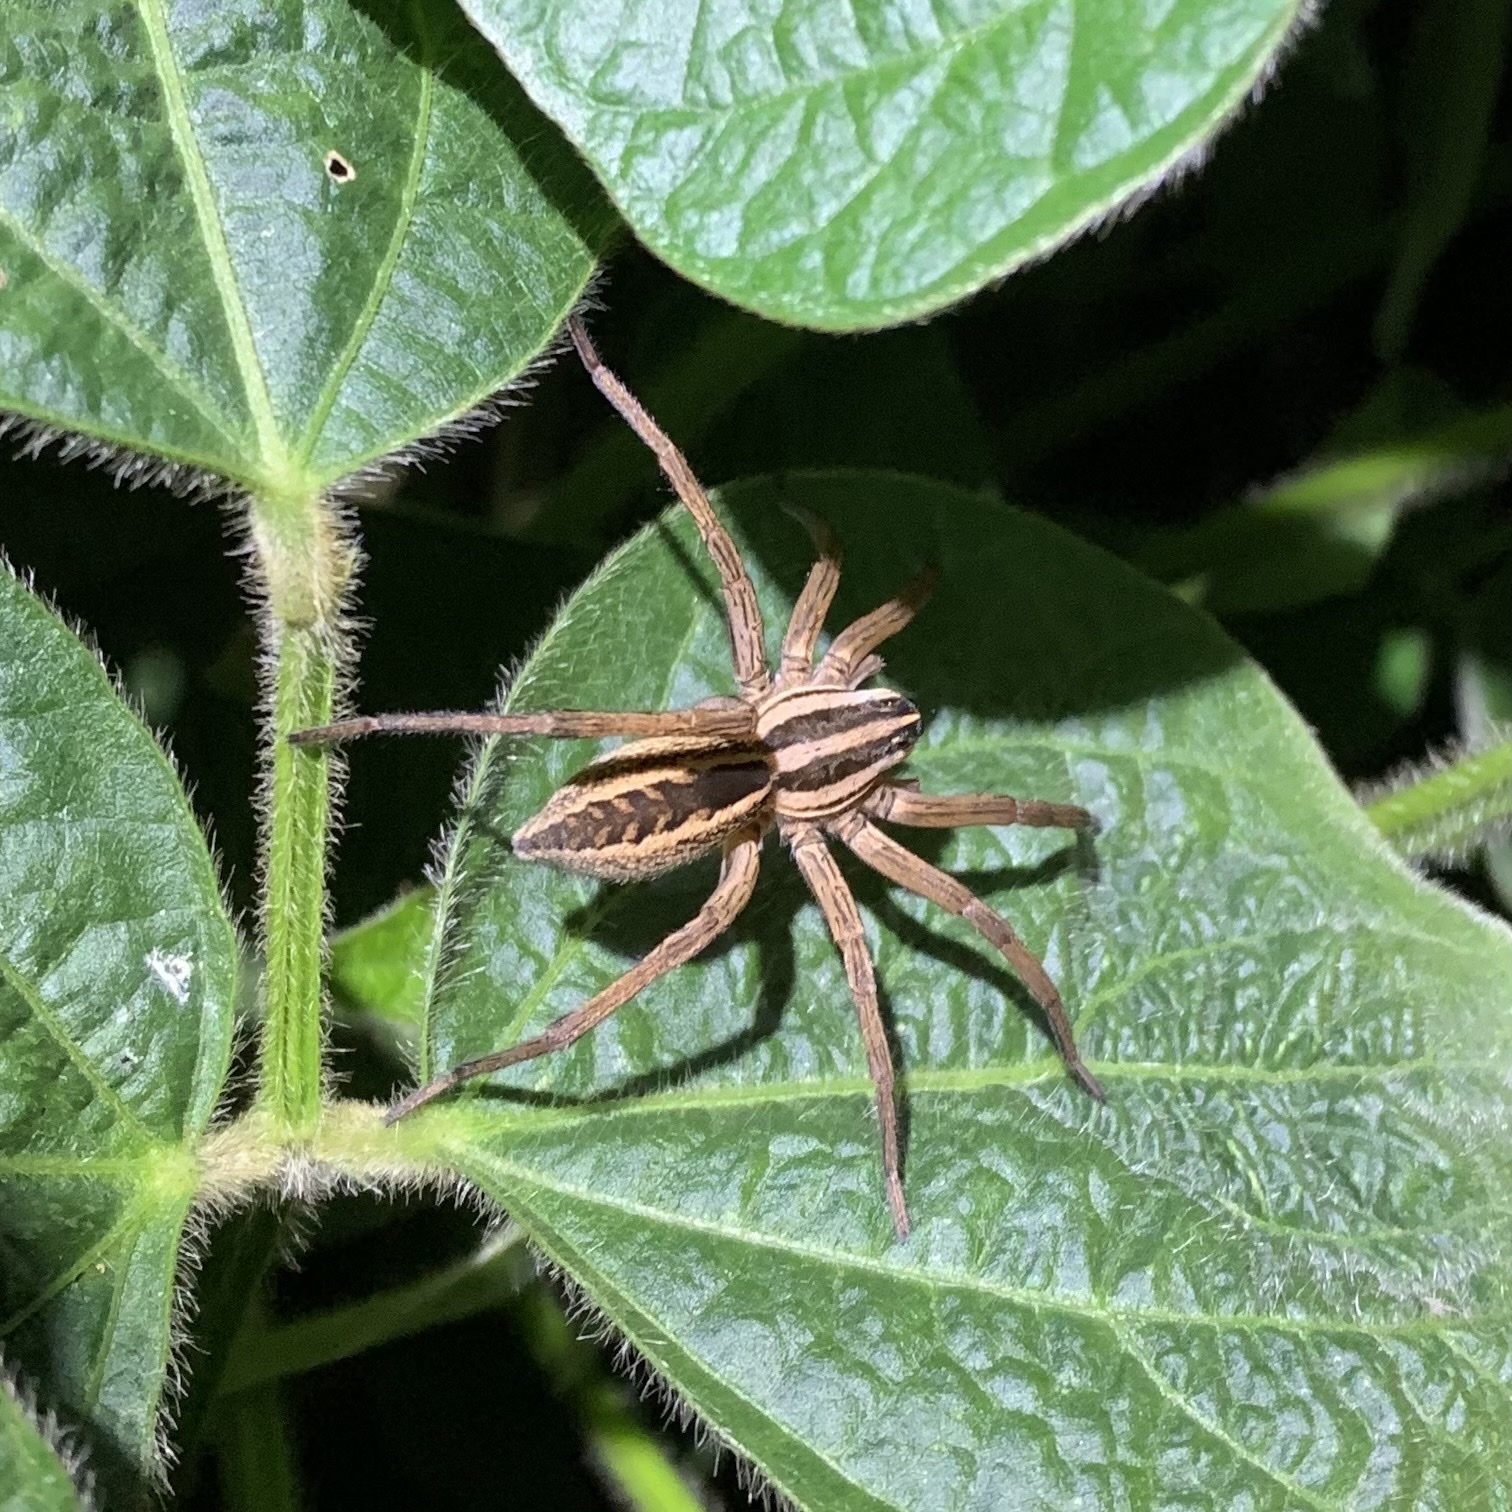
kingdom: Animalia
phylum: Arthropoda
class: Arachnida
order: Araneae
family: Lycosidae
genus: Rabidosa
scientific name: Rabidosa rabida
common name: Rabid wolf spider
